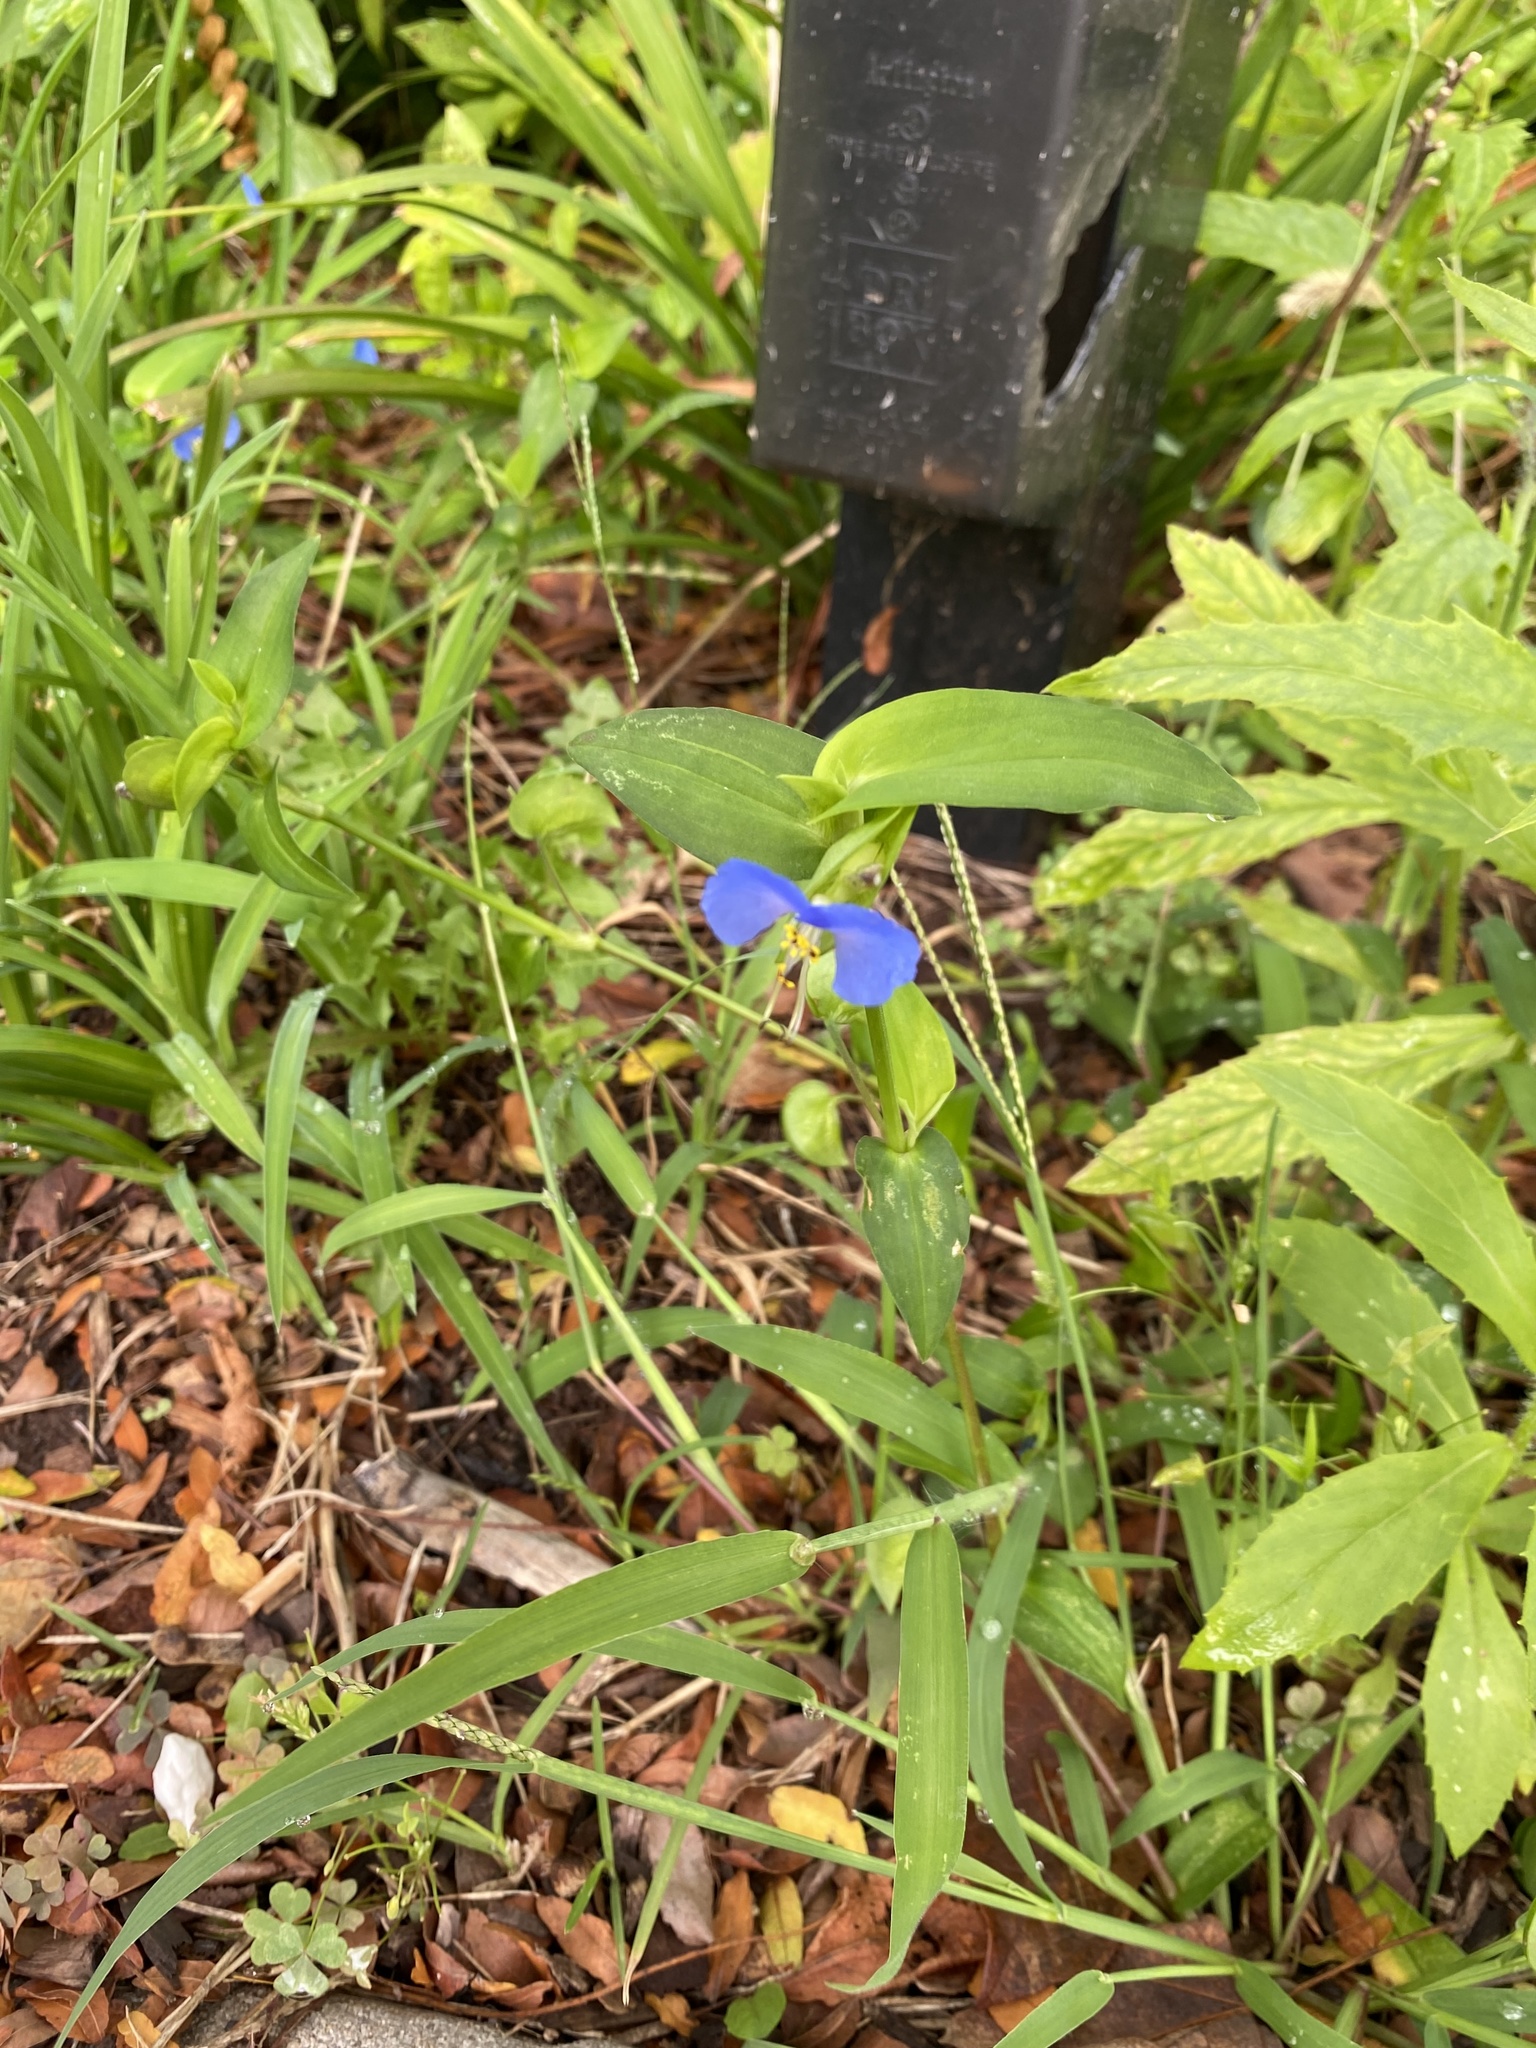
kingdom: Plantae
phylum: Tracheophyta
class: Liliopsida
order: Commelinales
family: Commelinaceae
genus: Commelina
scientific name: Commelina communis
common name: Asiatic dayflower
